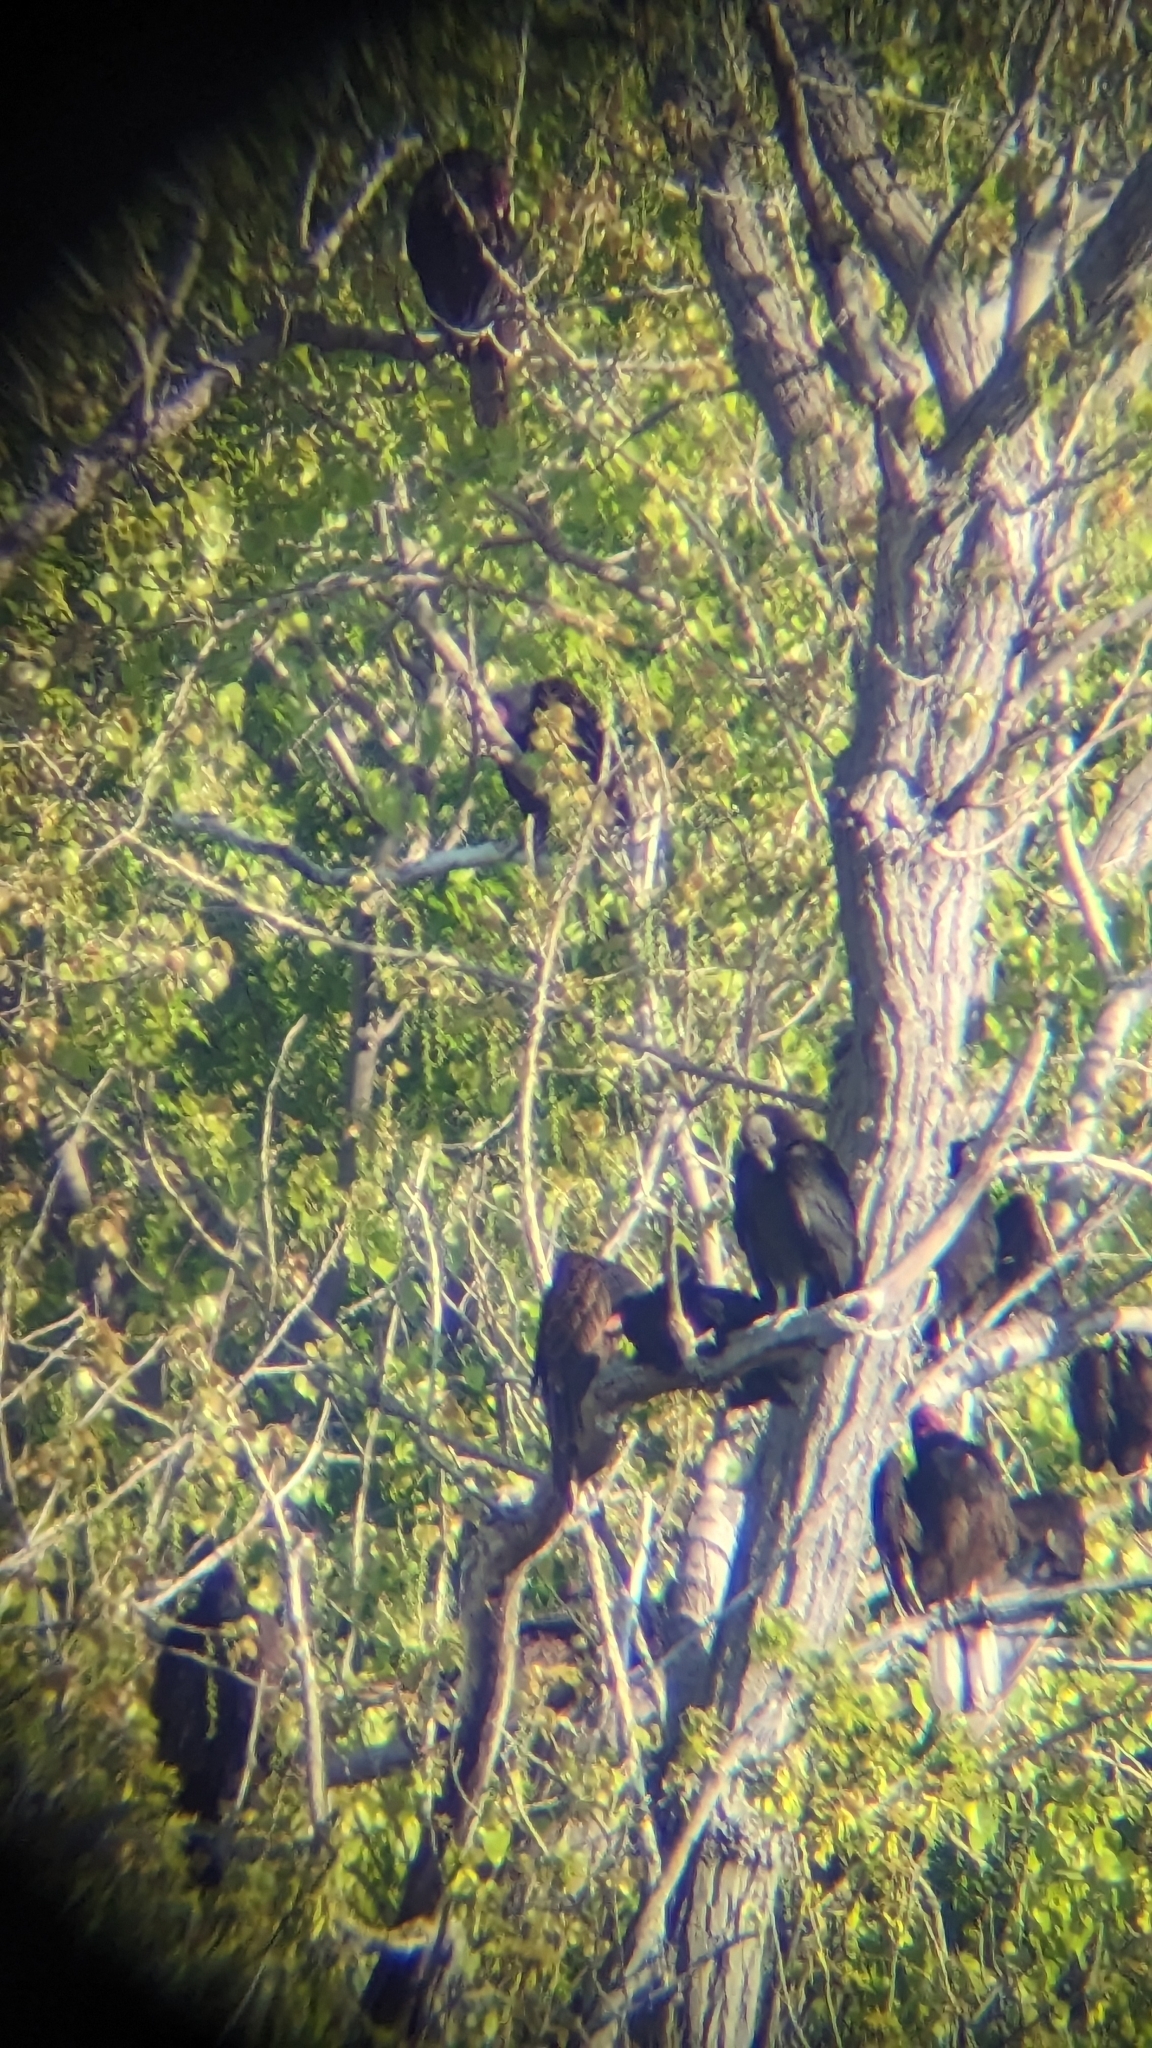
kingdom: Animalia
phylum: Chordata
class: Aves
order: Accipitriformes
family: Cathartidae
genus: Coragyps
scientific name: Coragyps atratus
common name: Black vulture
